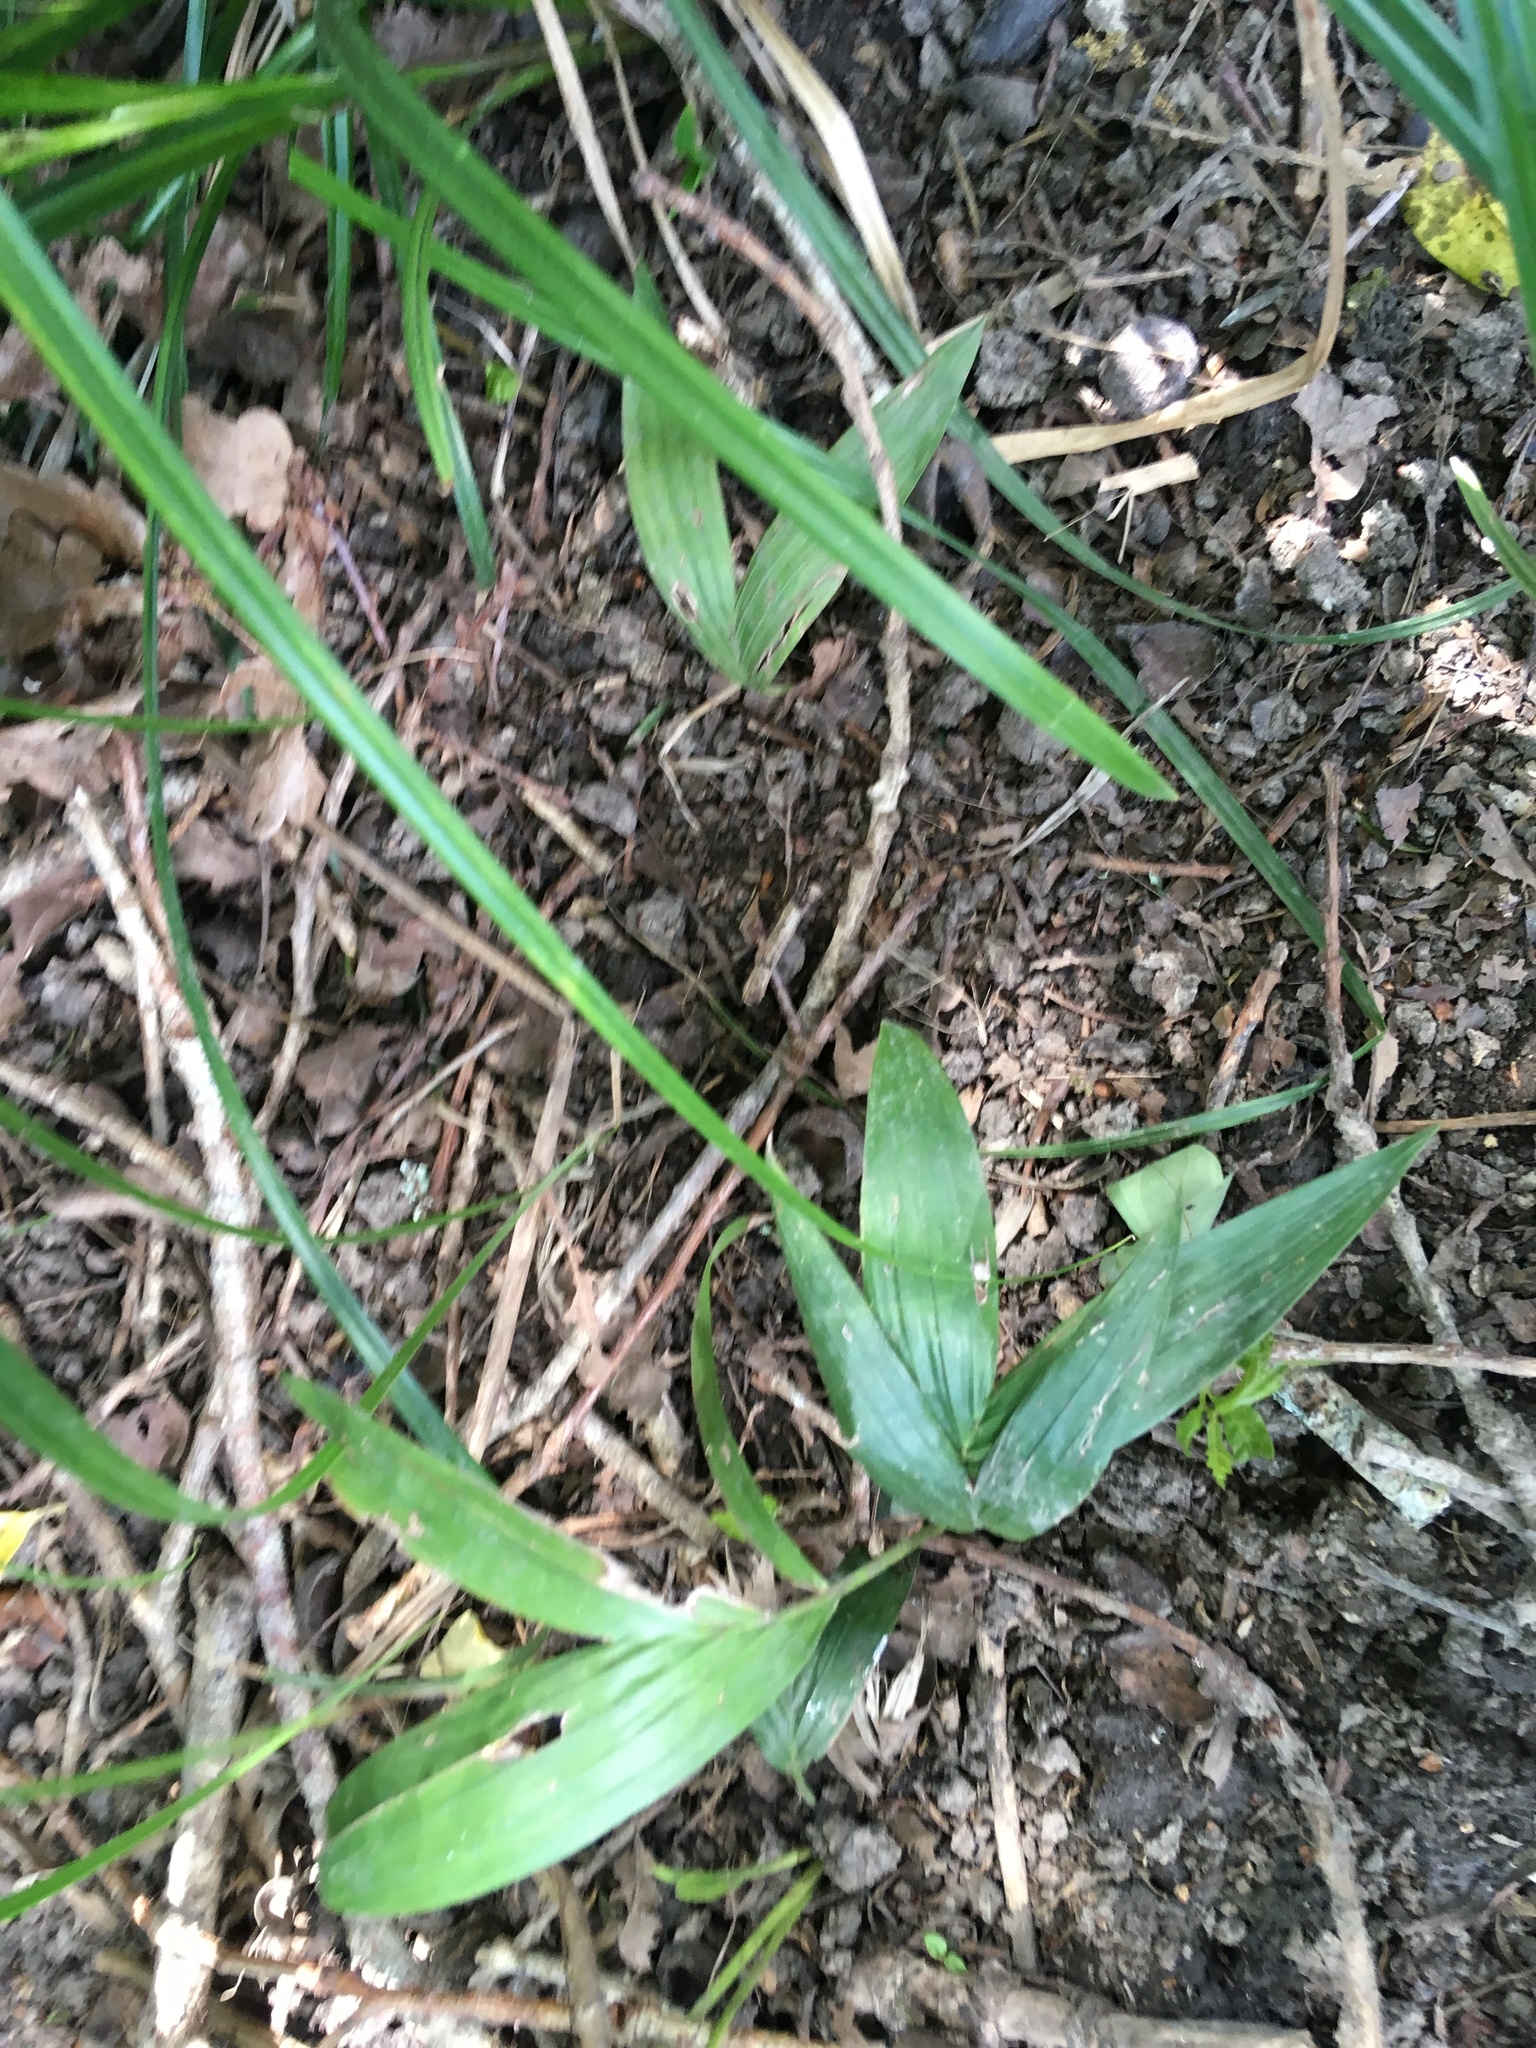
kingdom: Plantae
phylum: Tracheophyta
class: Liliopsida
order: Arecales
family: Arecaceae
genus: Archontophoenix
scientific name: Archontophoenix cunninghamiana
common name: Piccabeen bangalow palm
